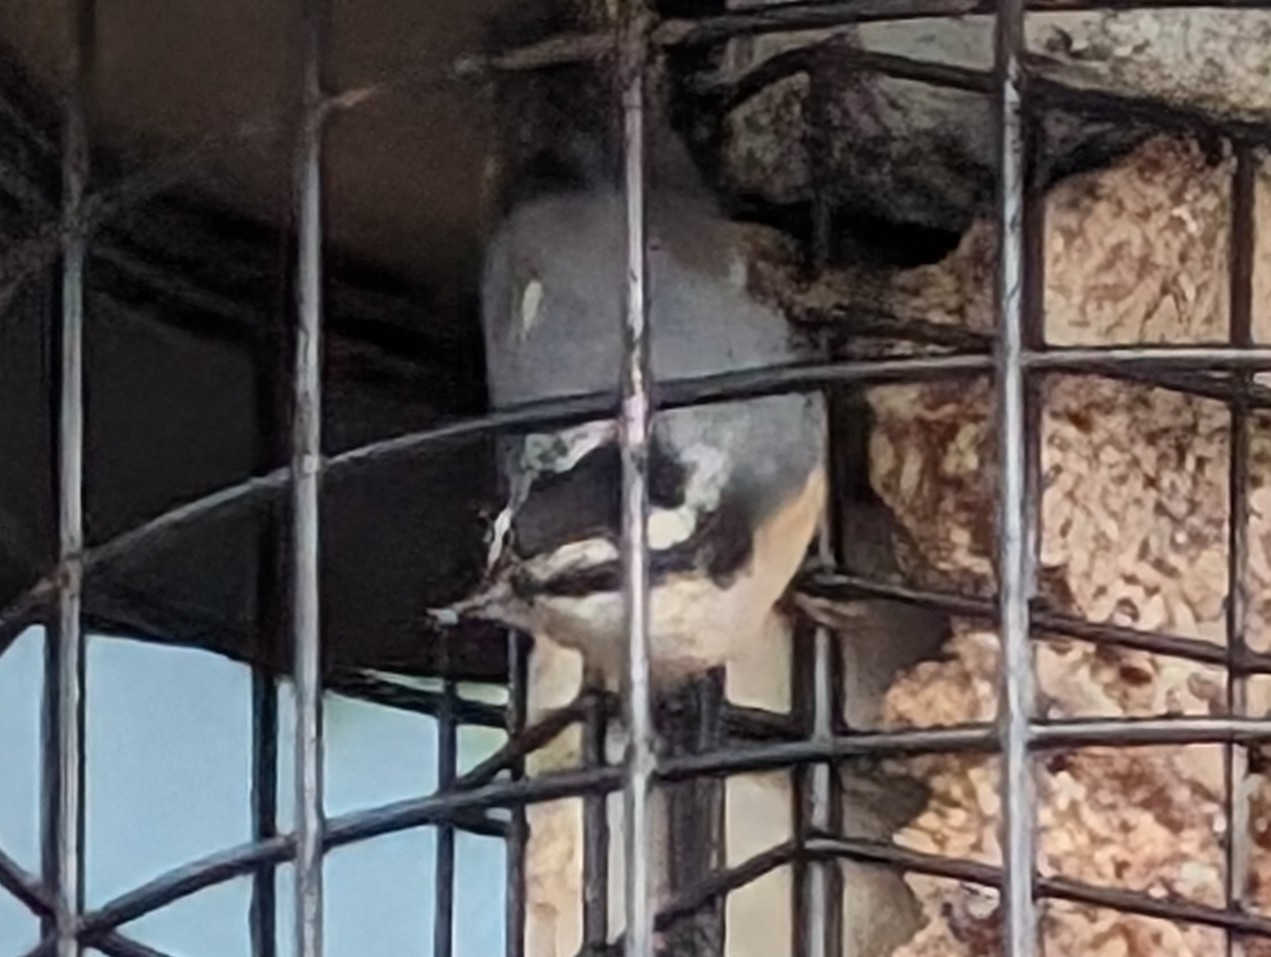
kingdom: Animalia
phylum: Chordata
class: Aves
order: Passeriformes
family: Sittidae
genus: Sitta
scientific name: Sitta canadensis
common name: Red-breasted nuthatch
